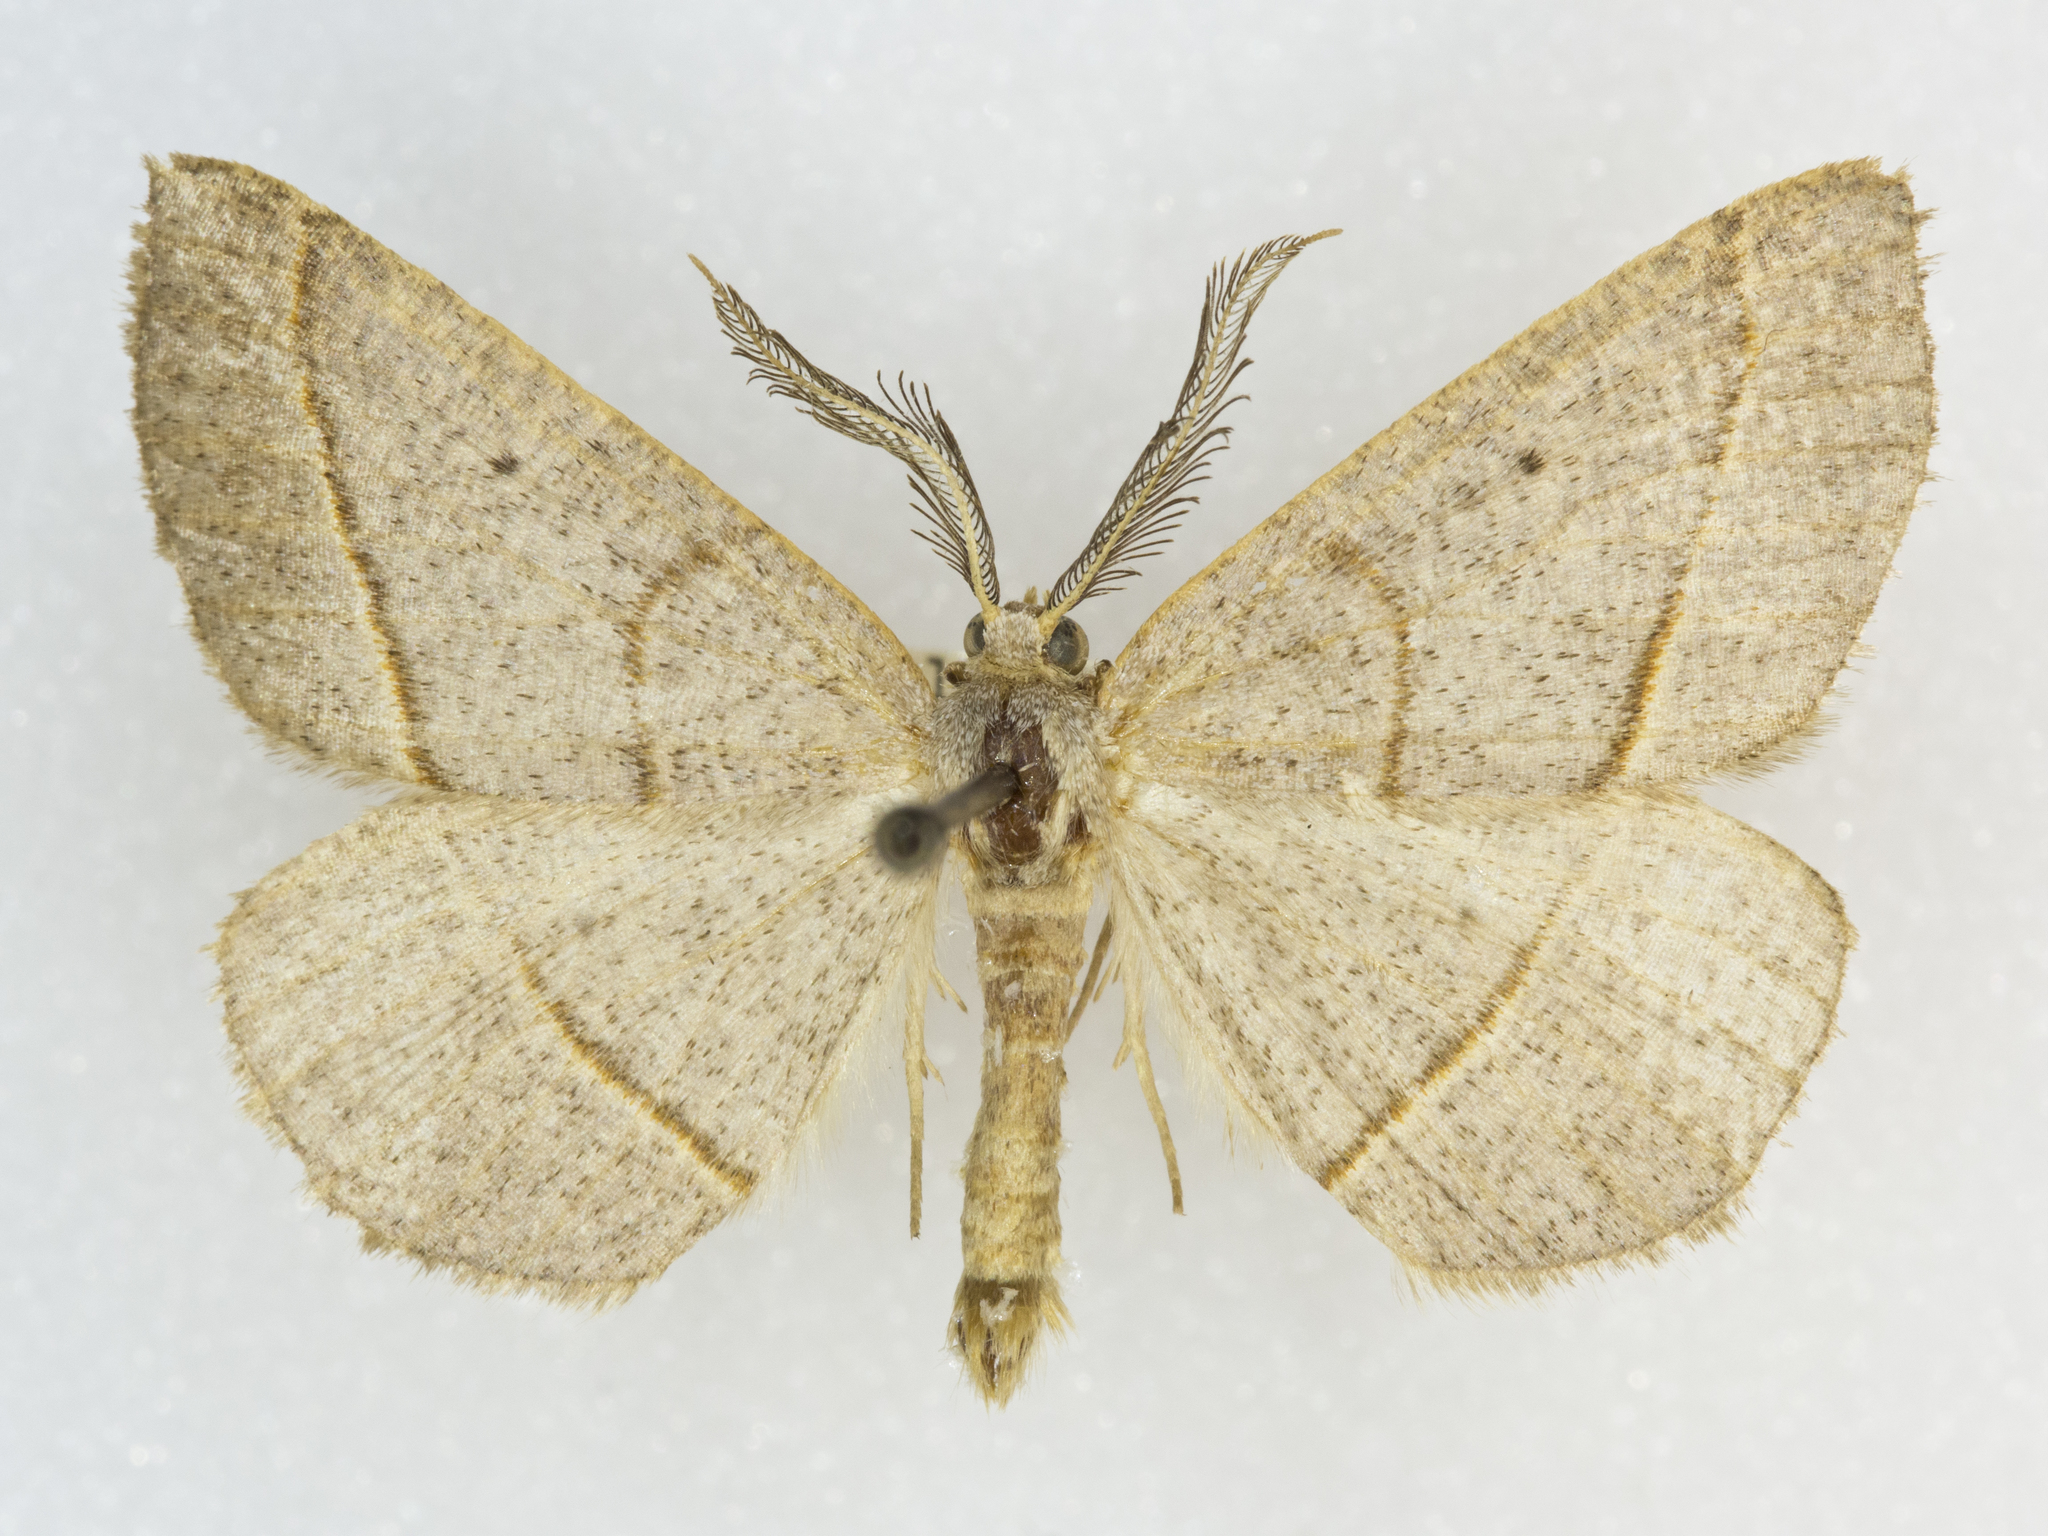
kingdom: Animalia
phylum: Arthropoda
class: Insecta
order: Lepidoptera
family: Geometridae
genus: Eusarca
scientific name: Eusarca tibiaria
